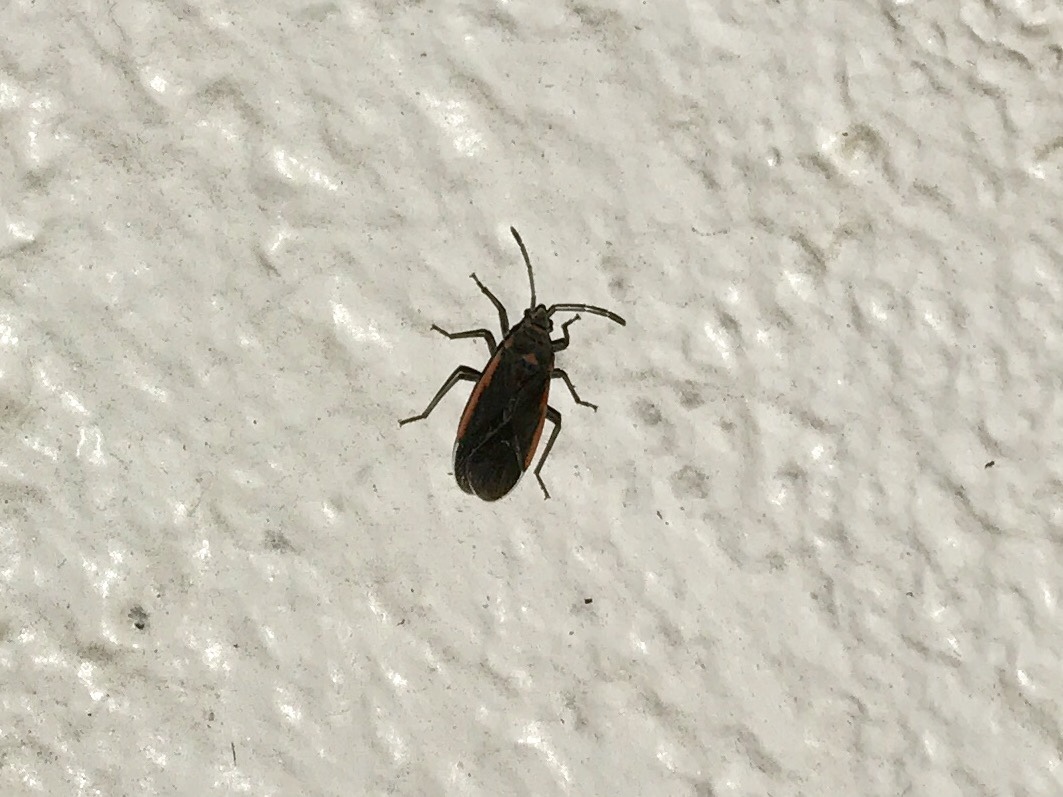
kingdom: Animalia
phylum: Arthropoda
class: Insecta
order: Hemiptera
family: Lygaeidae
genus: Melacoryphus
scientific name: Melacoryphus lateralis
